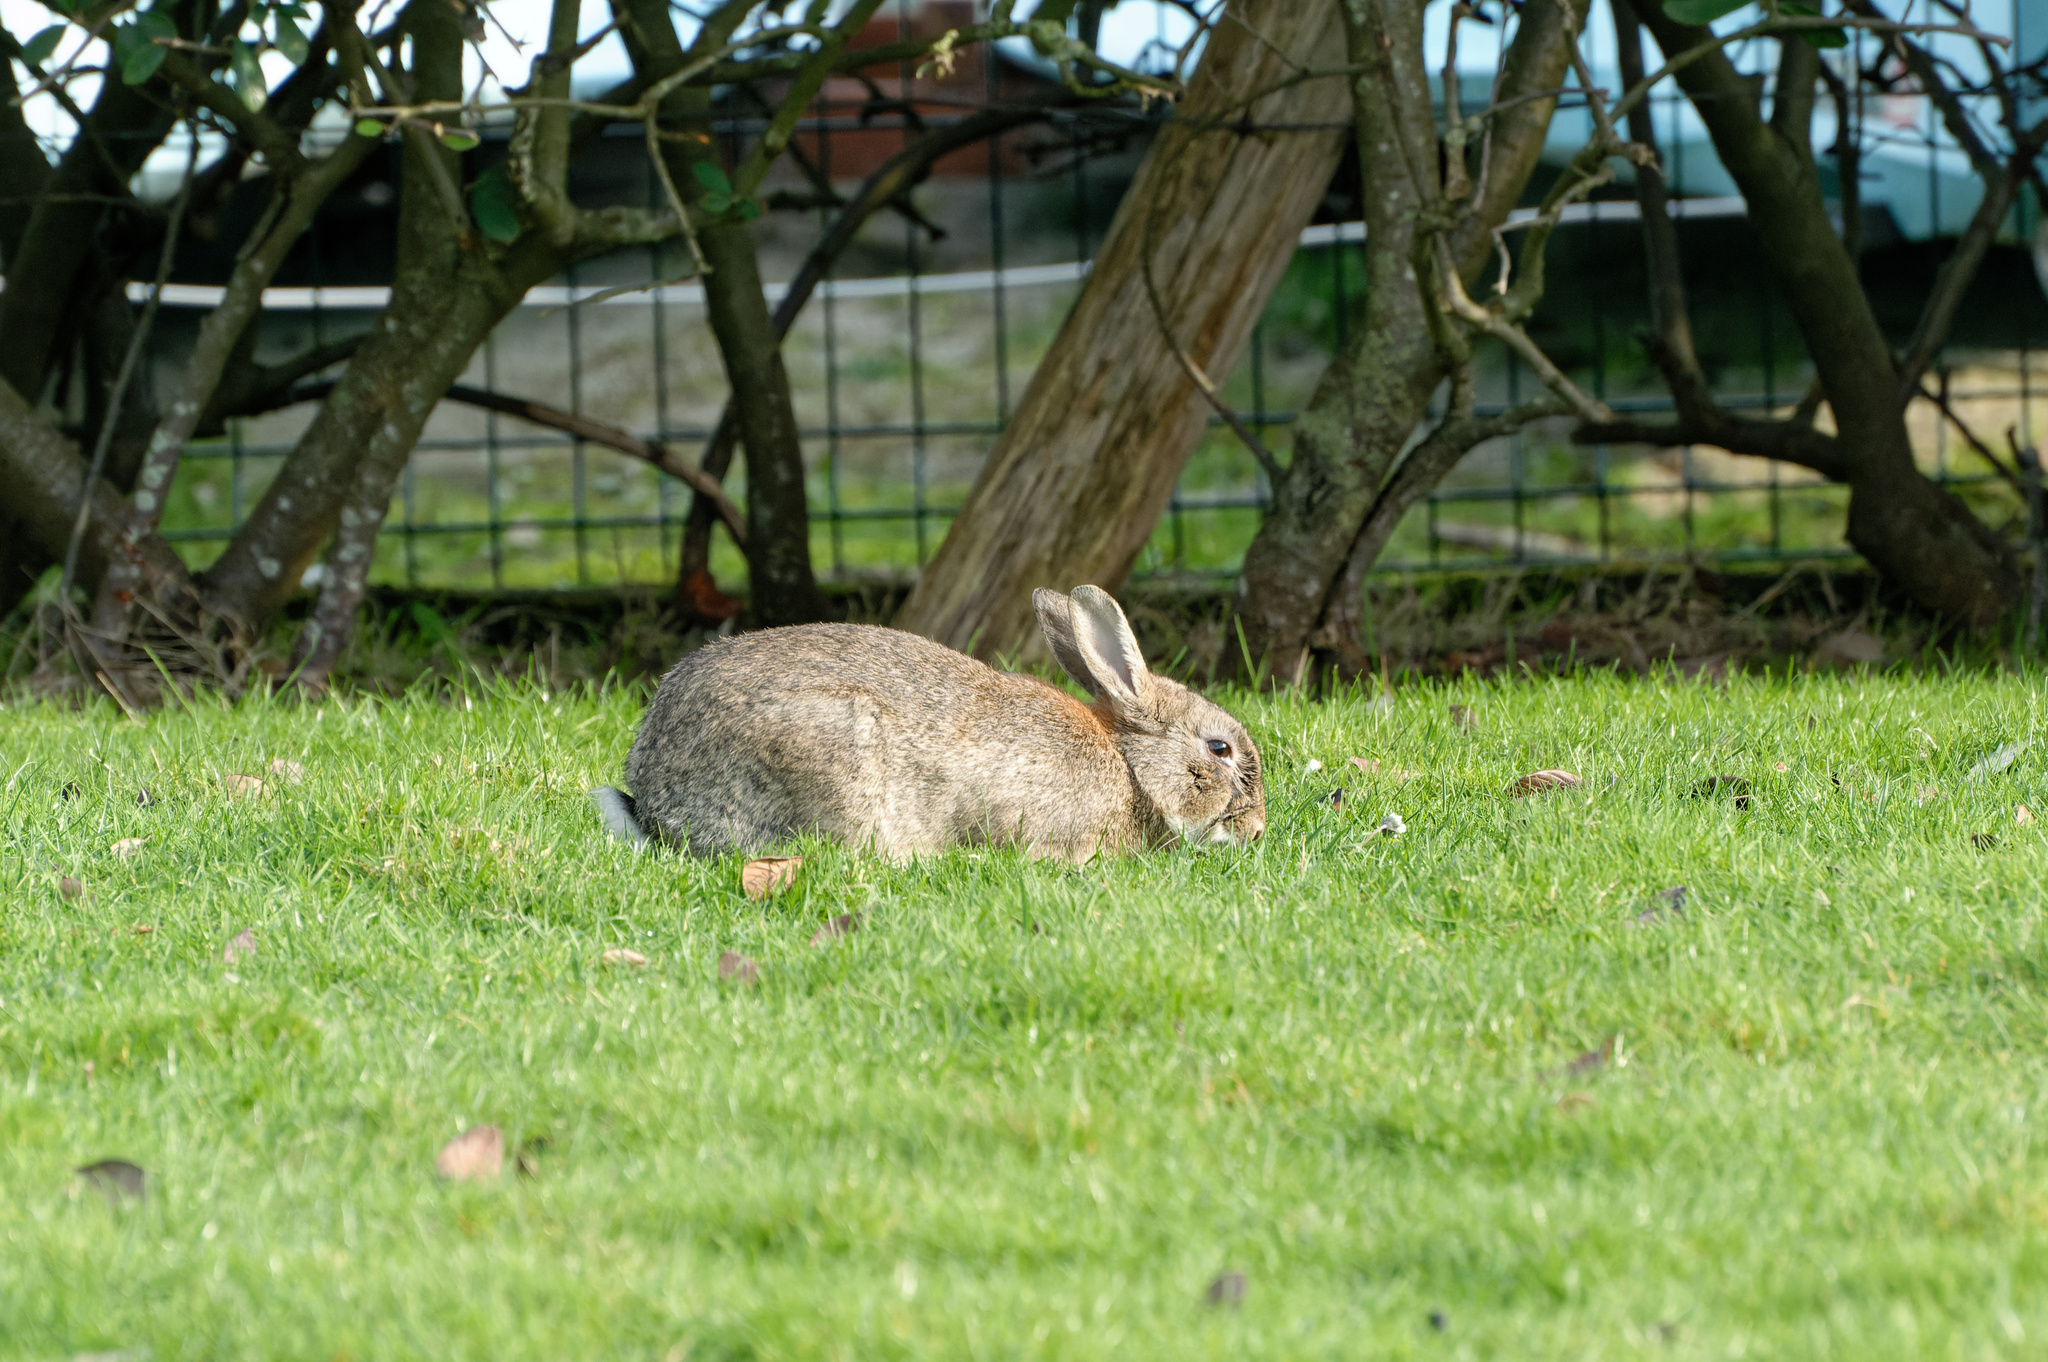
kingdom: Animalia
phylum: Chordata
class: Mammalia
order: Lagomorpha
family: Leporidae
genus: Oryctolagus
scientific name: Oryctolagus cuniculus
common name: European rabbit
